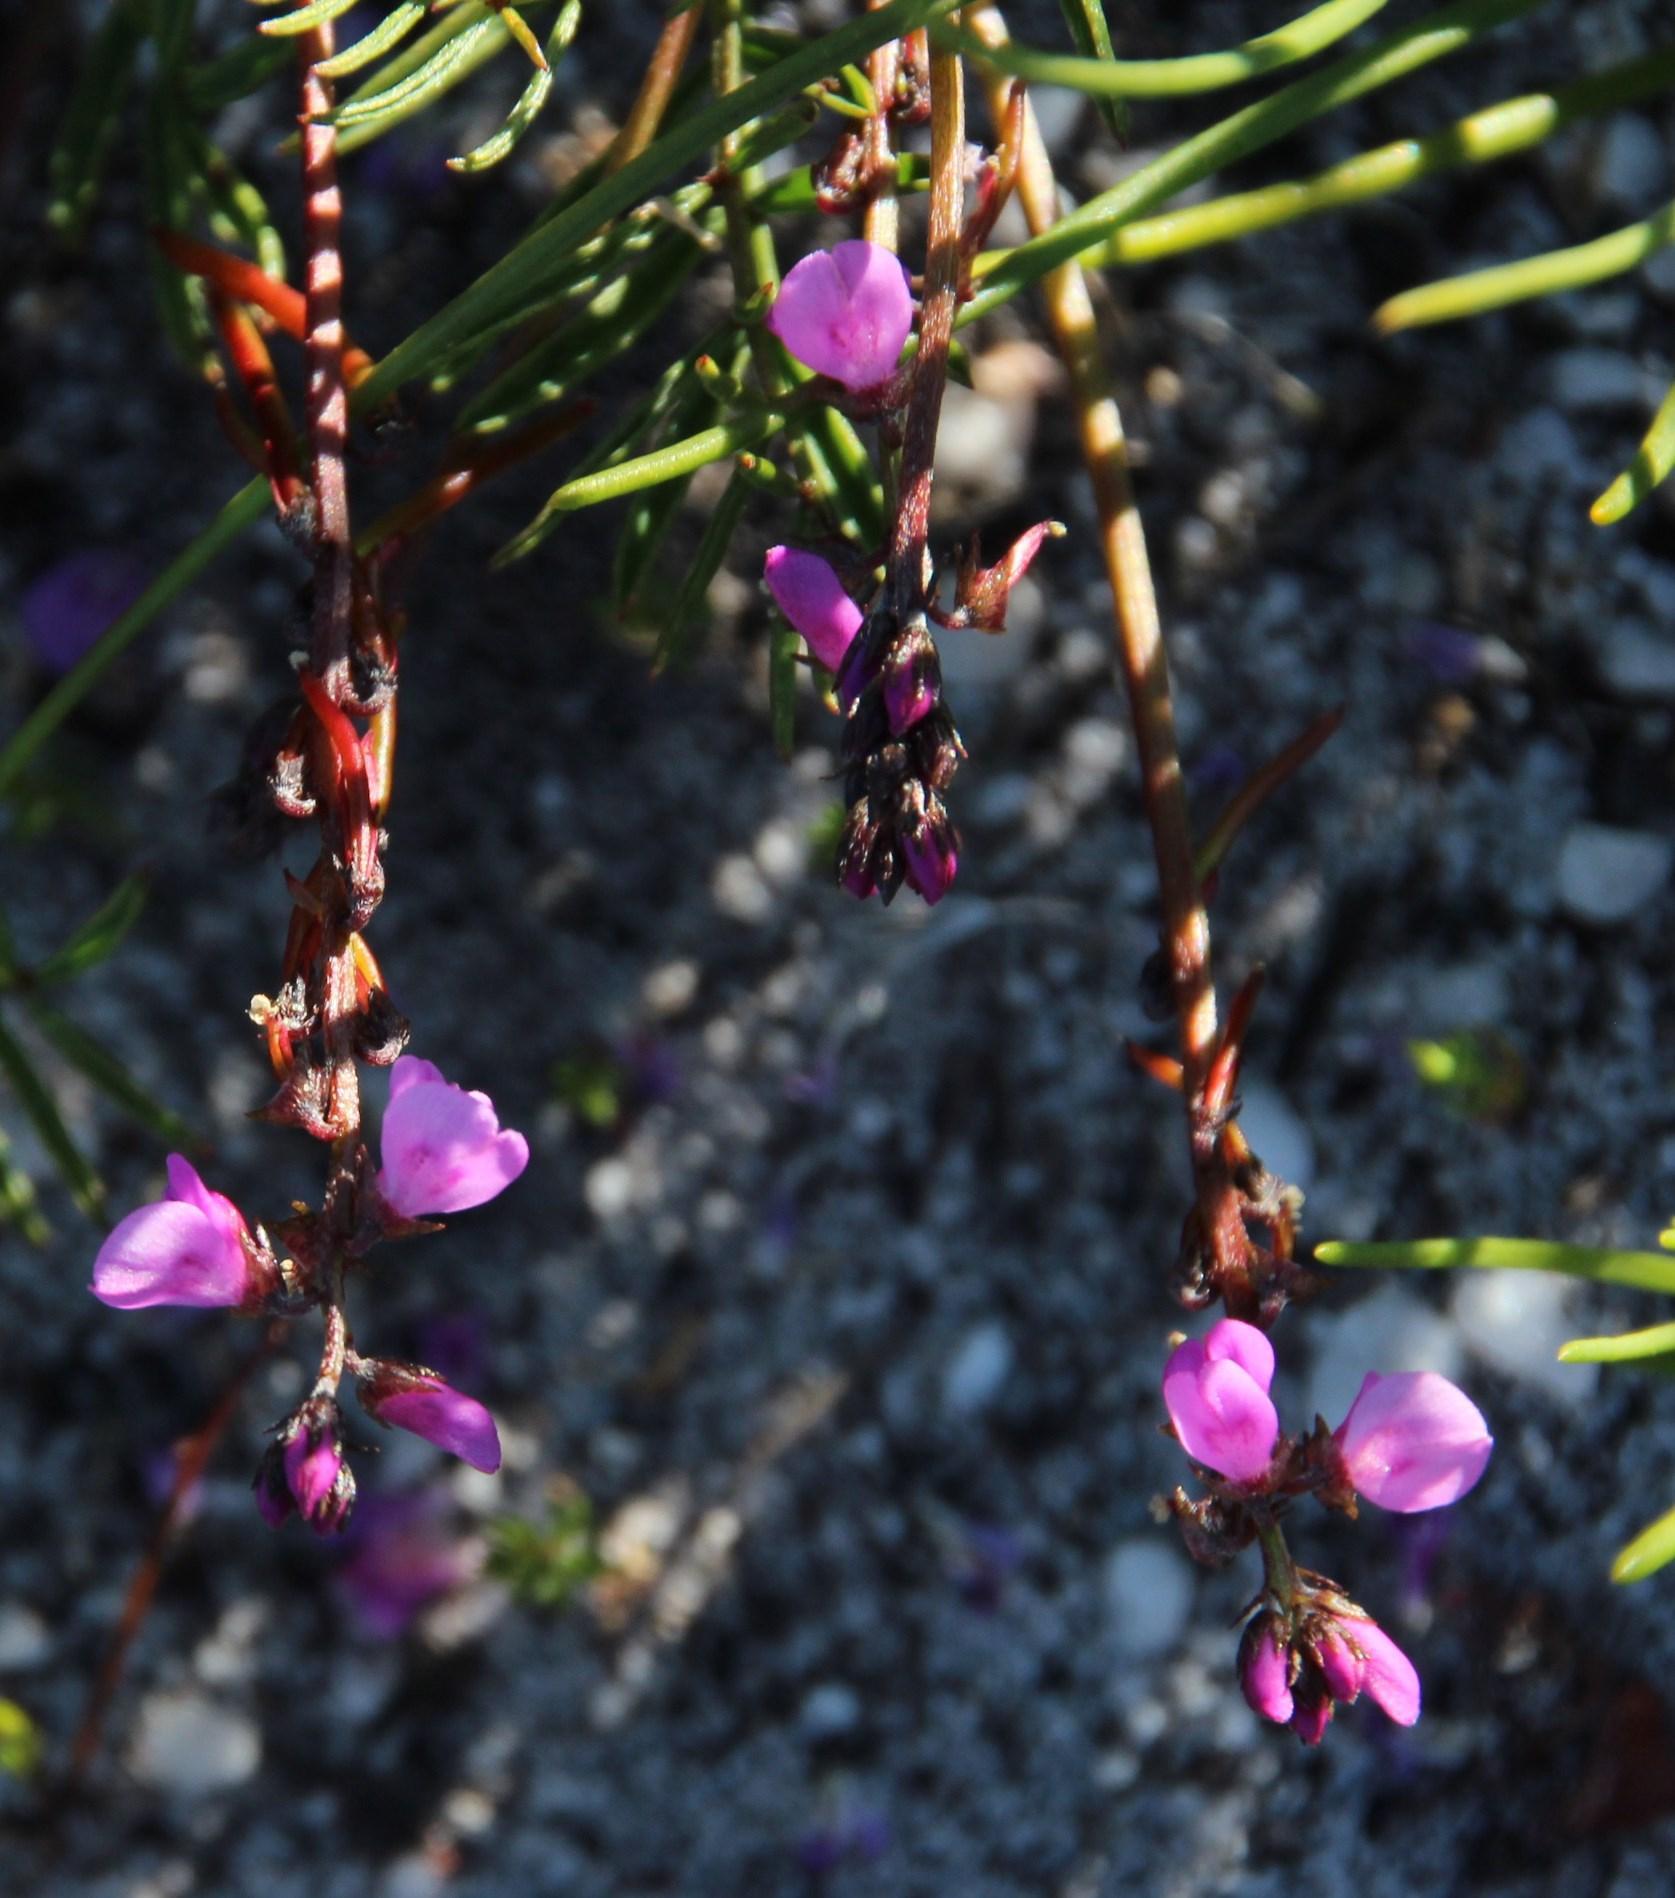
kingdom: Plantae
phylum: Tracheophyta
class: Magnoliopsida
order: Fabales
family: Fabaceae
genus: Indigofera
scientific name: Indigofera
